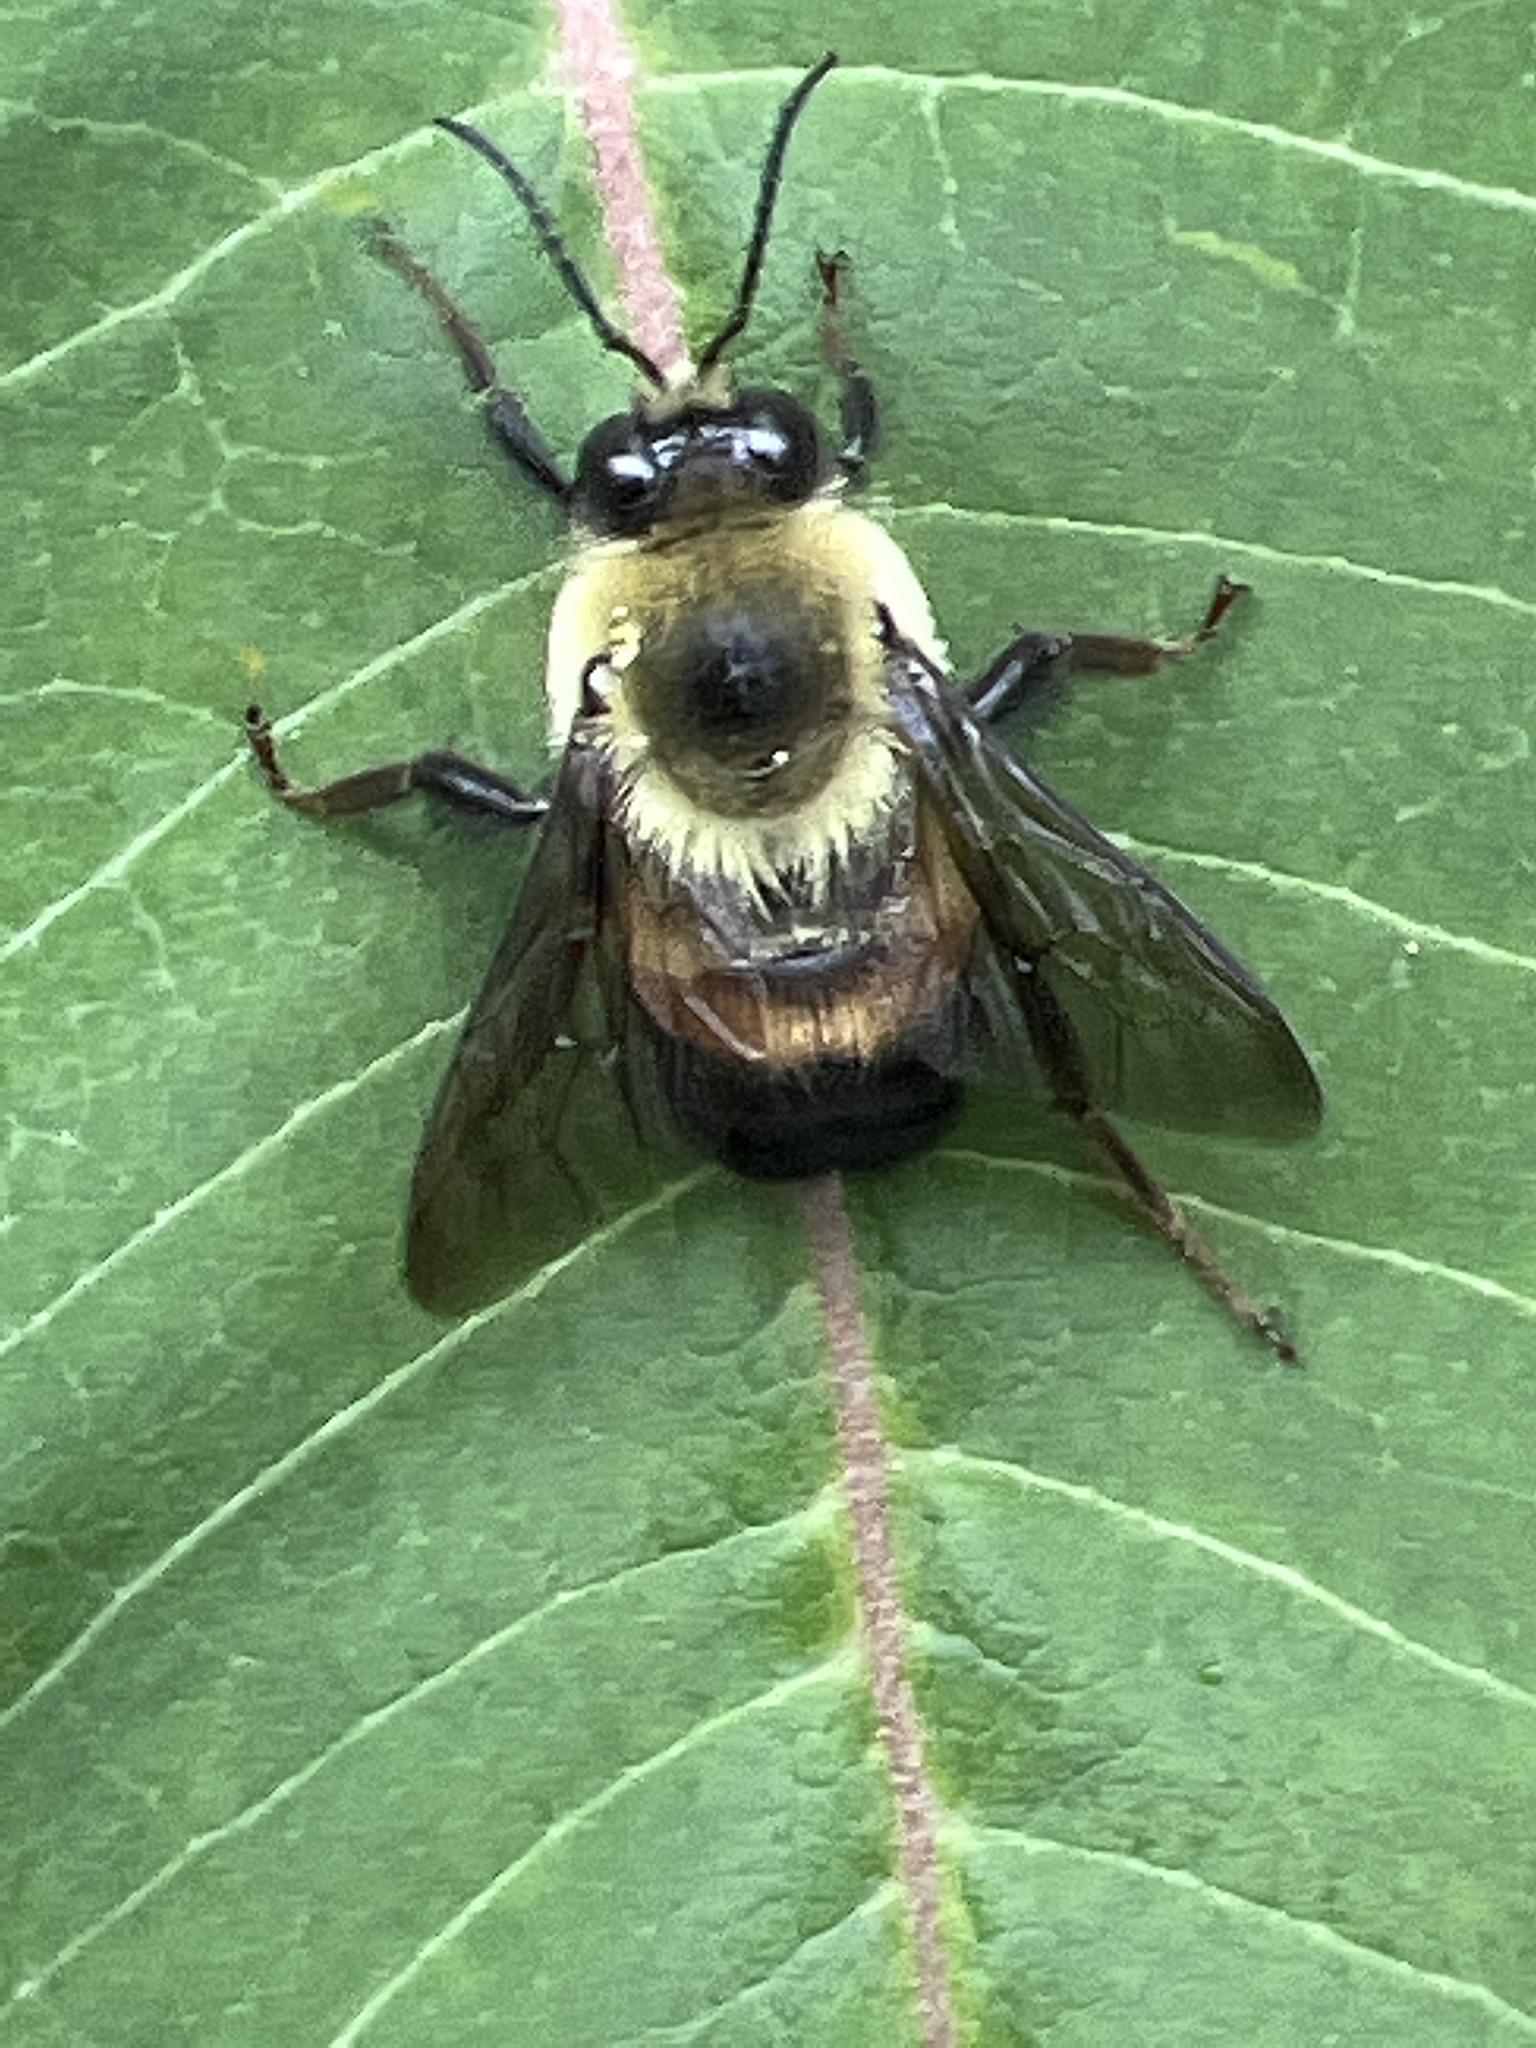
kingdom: Animalia
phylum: Arthropoda
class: Insecta
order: Hymenoptera
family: Apidae
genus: Bombus
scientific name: Bombus griseocollis
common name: Brown-belted bumble bee
